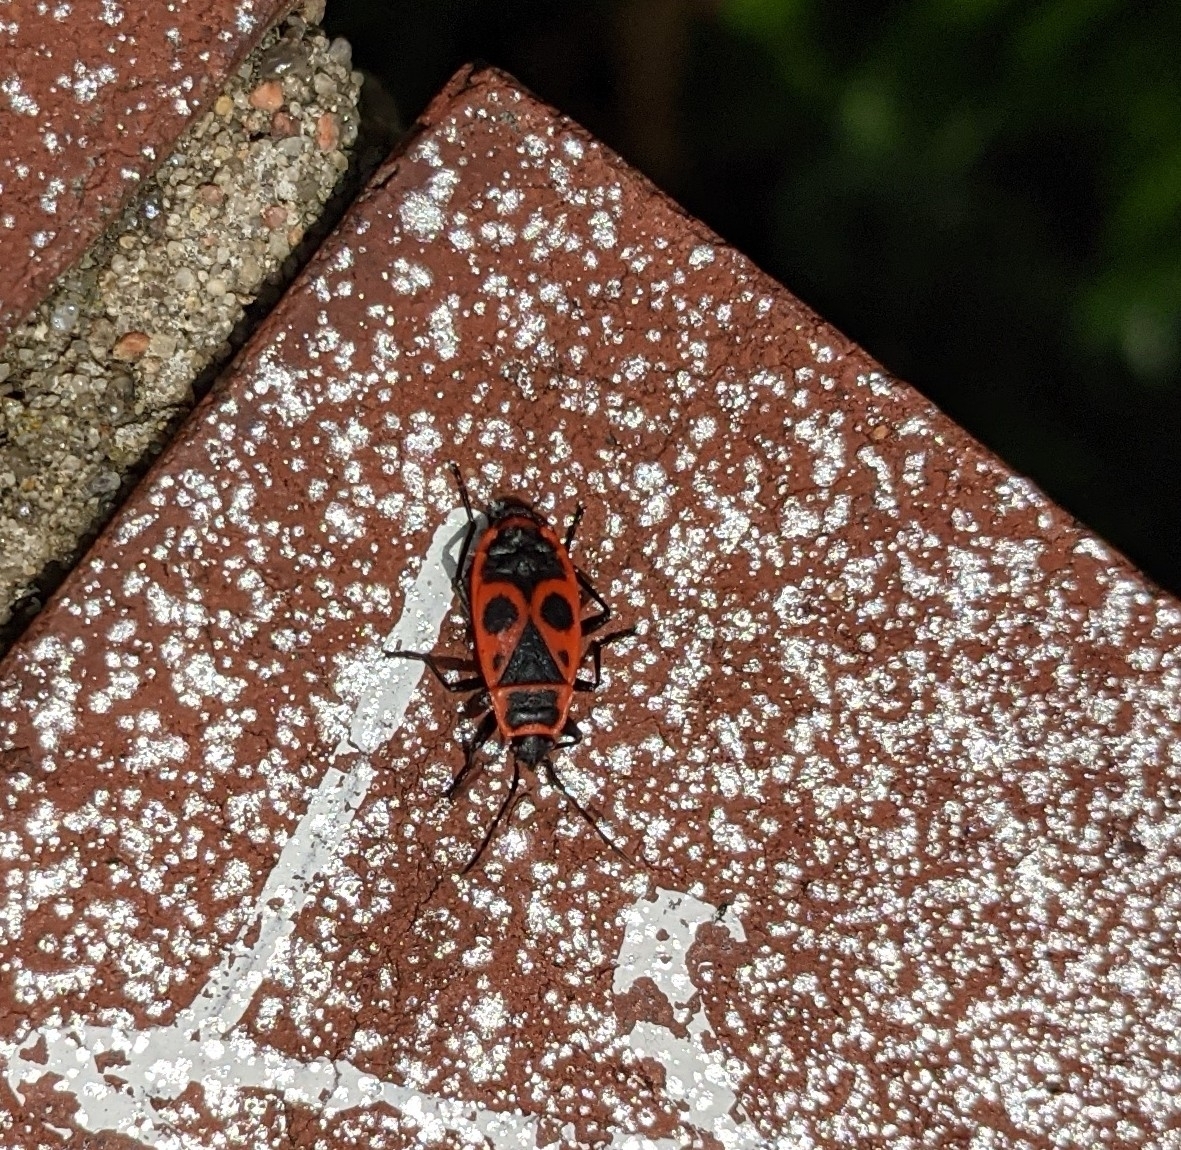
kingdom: Animalia
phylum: Arthropoda
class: Insecta
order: Hemiptera
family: Pyrrhocoridae
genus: Pyrrhocoris
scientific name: Pyrrhocoris apterus
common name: Firebug
